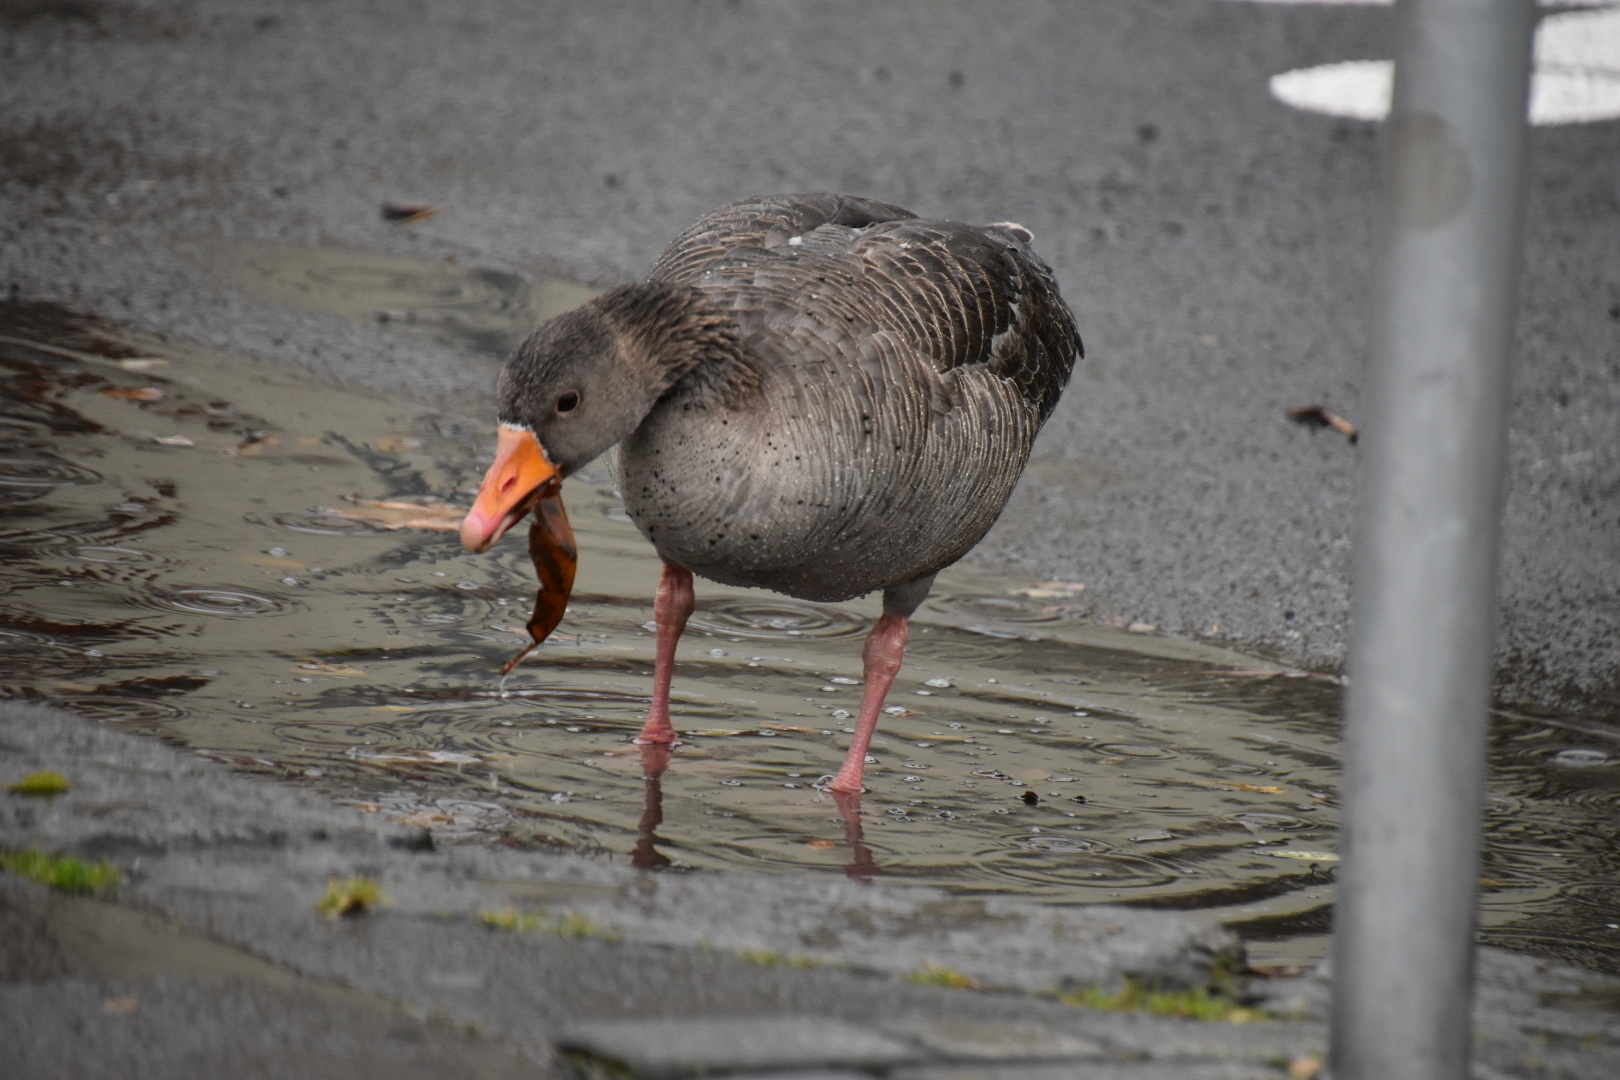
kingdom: Animalia
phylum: Chordata
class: Aves
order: Anseriformes
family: Anatidae
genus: Anser
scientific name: Anser anser
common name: Greylag goose
